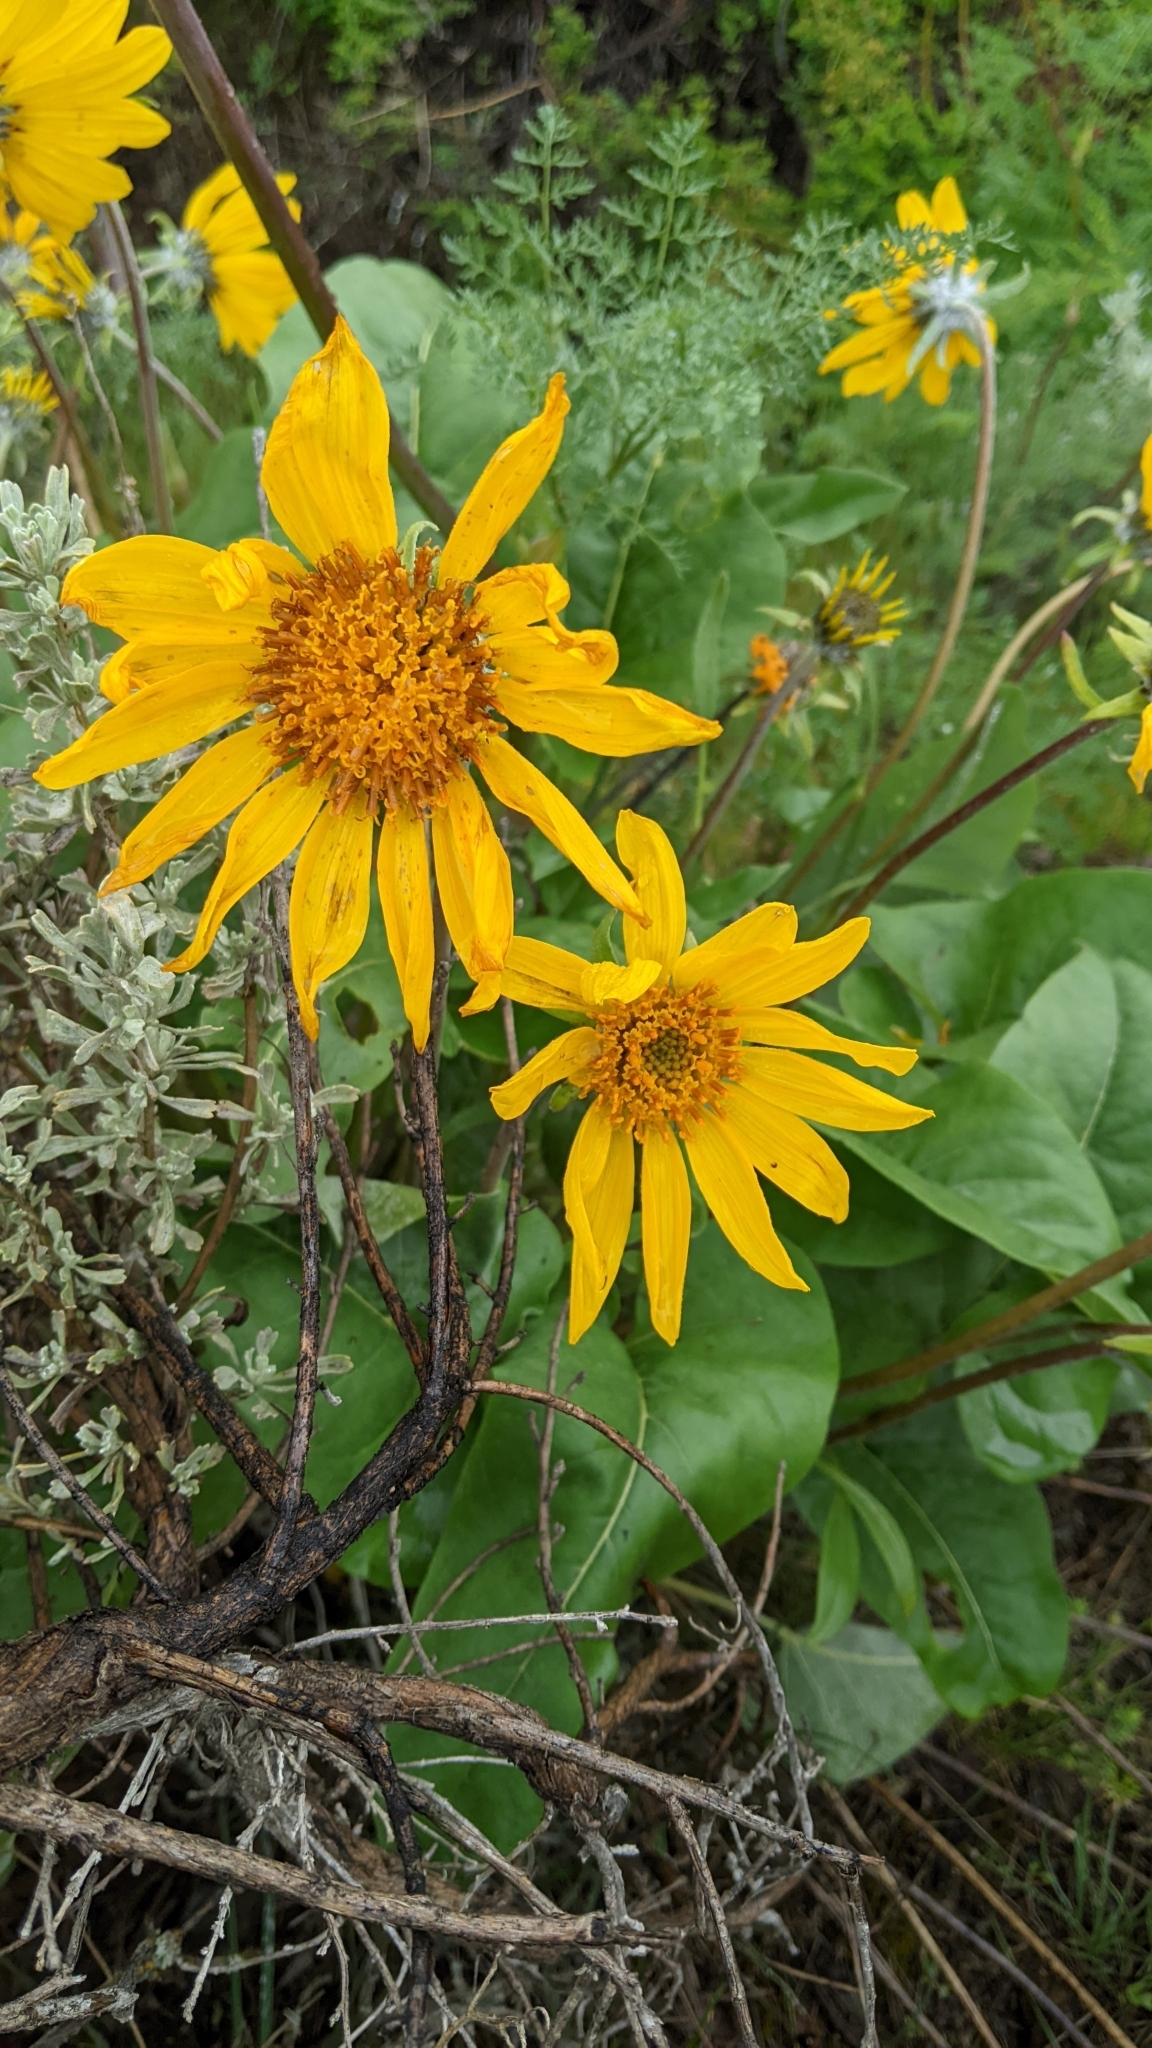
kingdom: Plantae
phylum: Tracheophyta
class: Magnoliopsida
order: Asterales
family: Asteraceae
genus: Wyethia
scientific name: Wyethia sagittata
